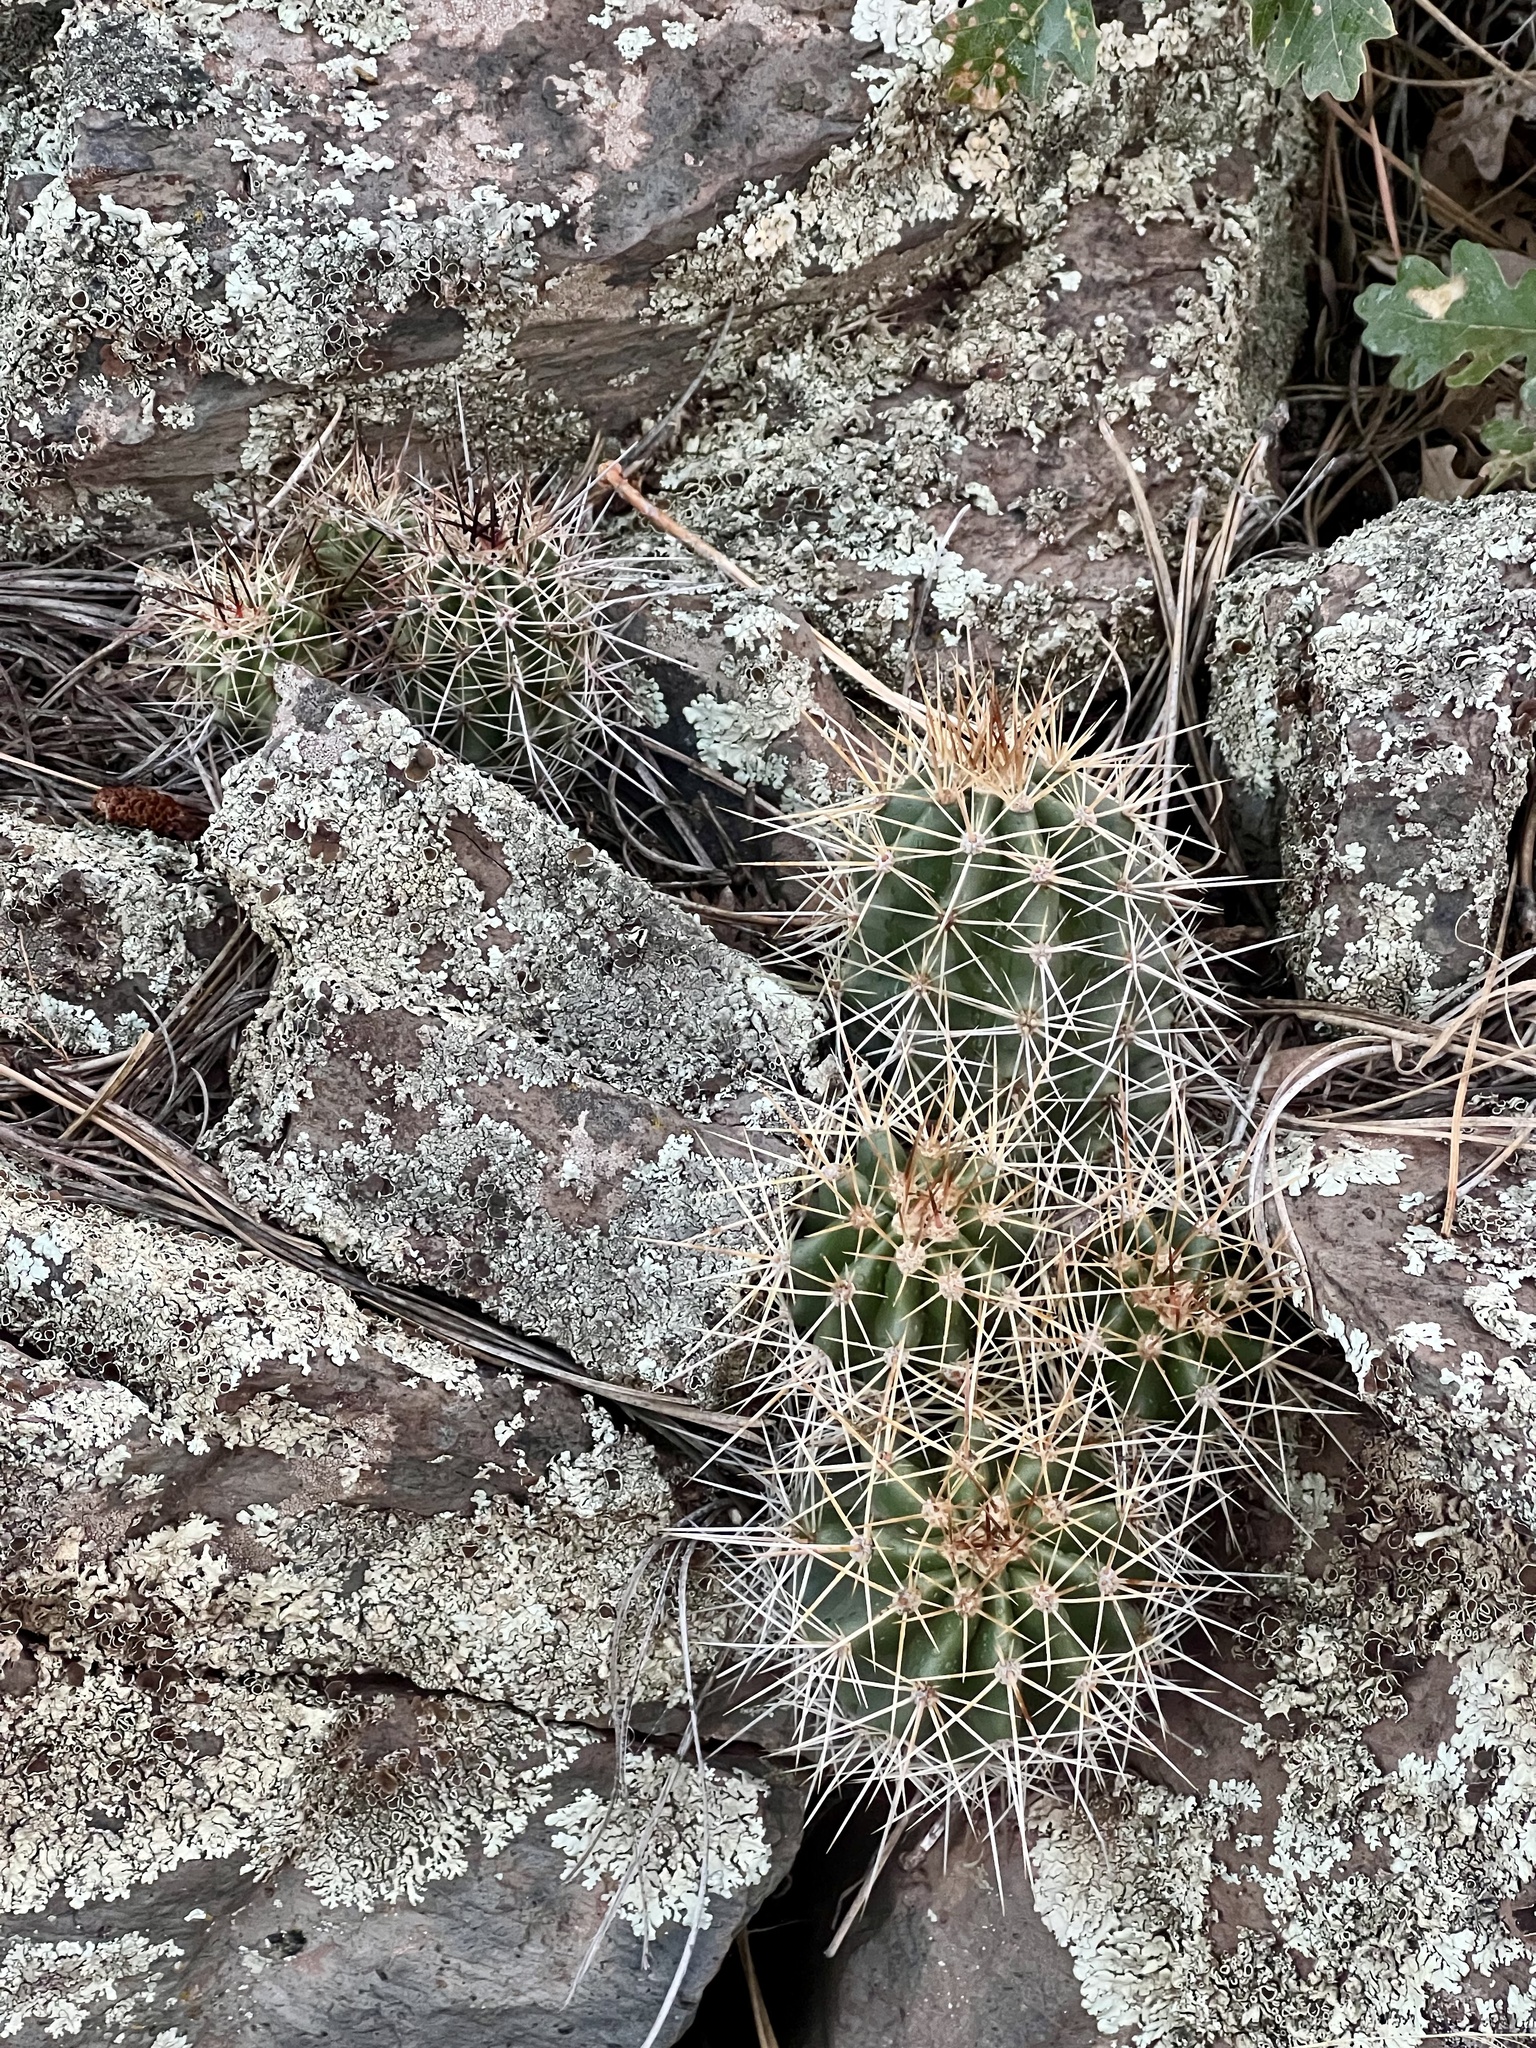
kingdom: Plantae
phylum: Tracheophyta
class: Magnoliopsida
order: Caryophyllales
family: Cactaceae
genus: Echinocereus
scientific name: Echinocereus bakeri
